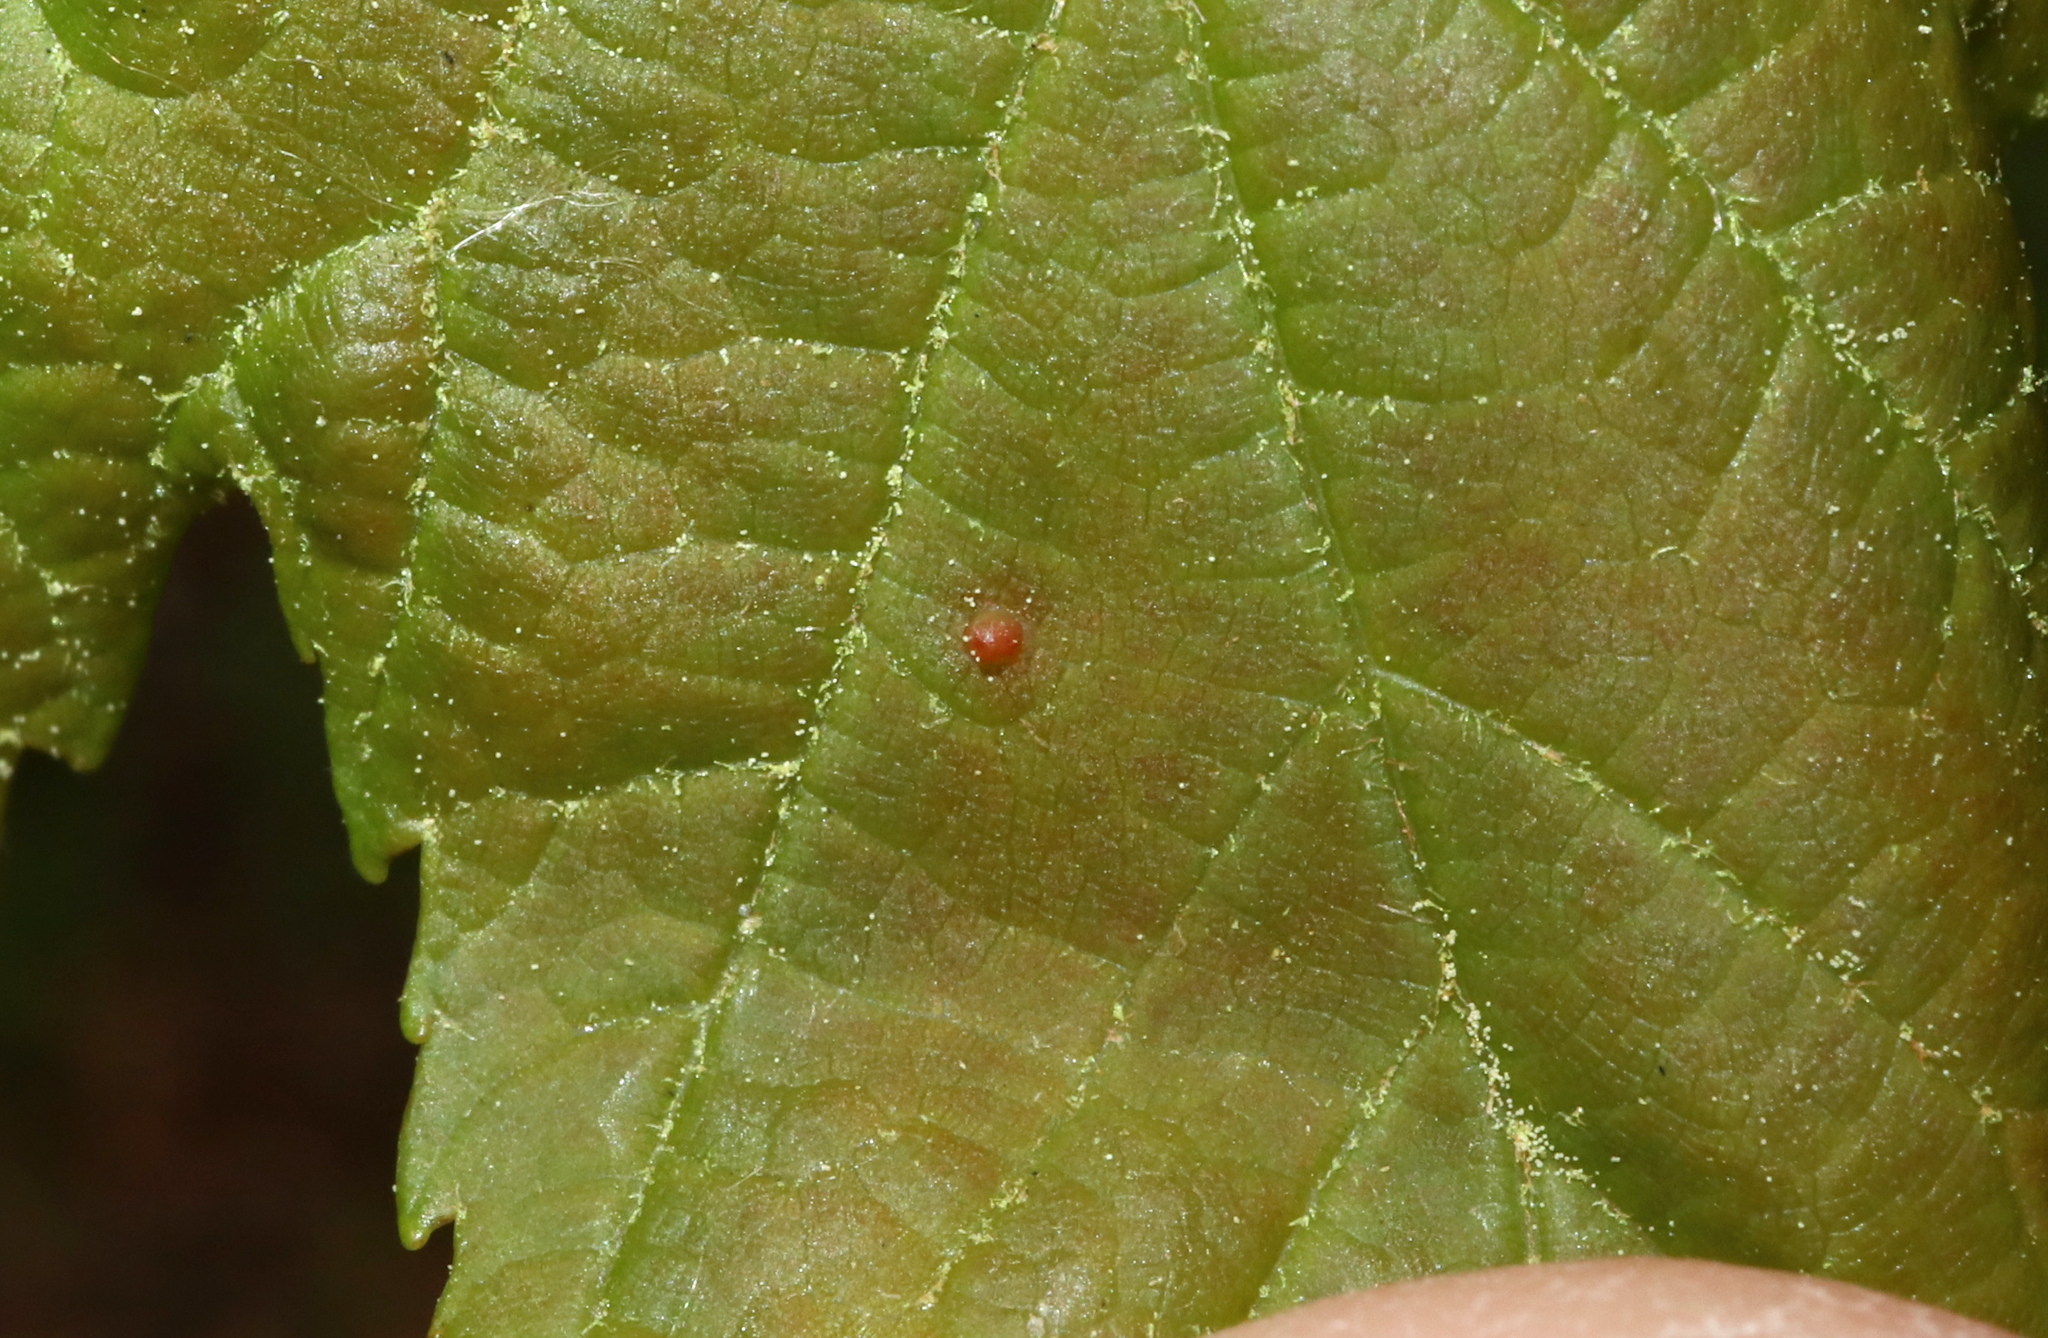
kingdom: Animalia
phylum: Arthropoda
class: Arachnida
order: Trombidiformes
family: Eriophyidae
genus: Vasates
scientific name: Vasates quadripedes
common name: Maple bladder gall mite
